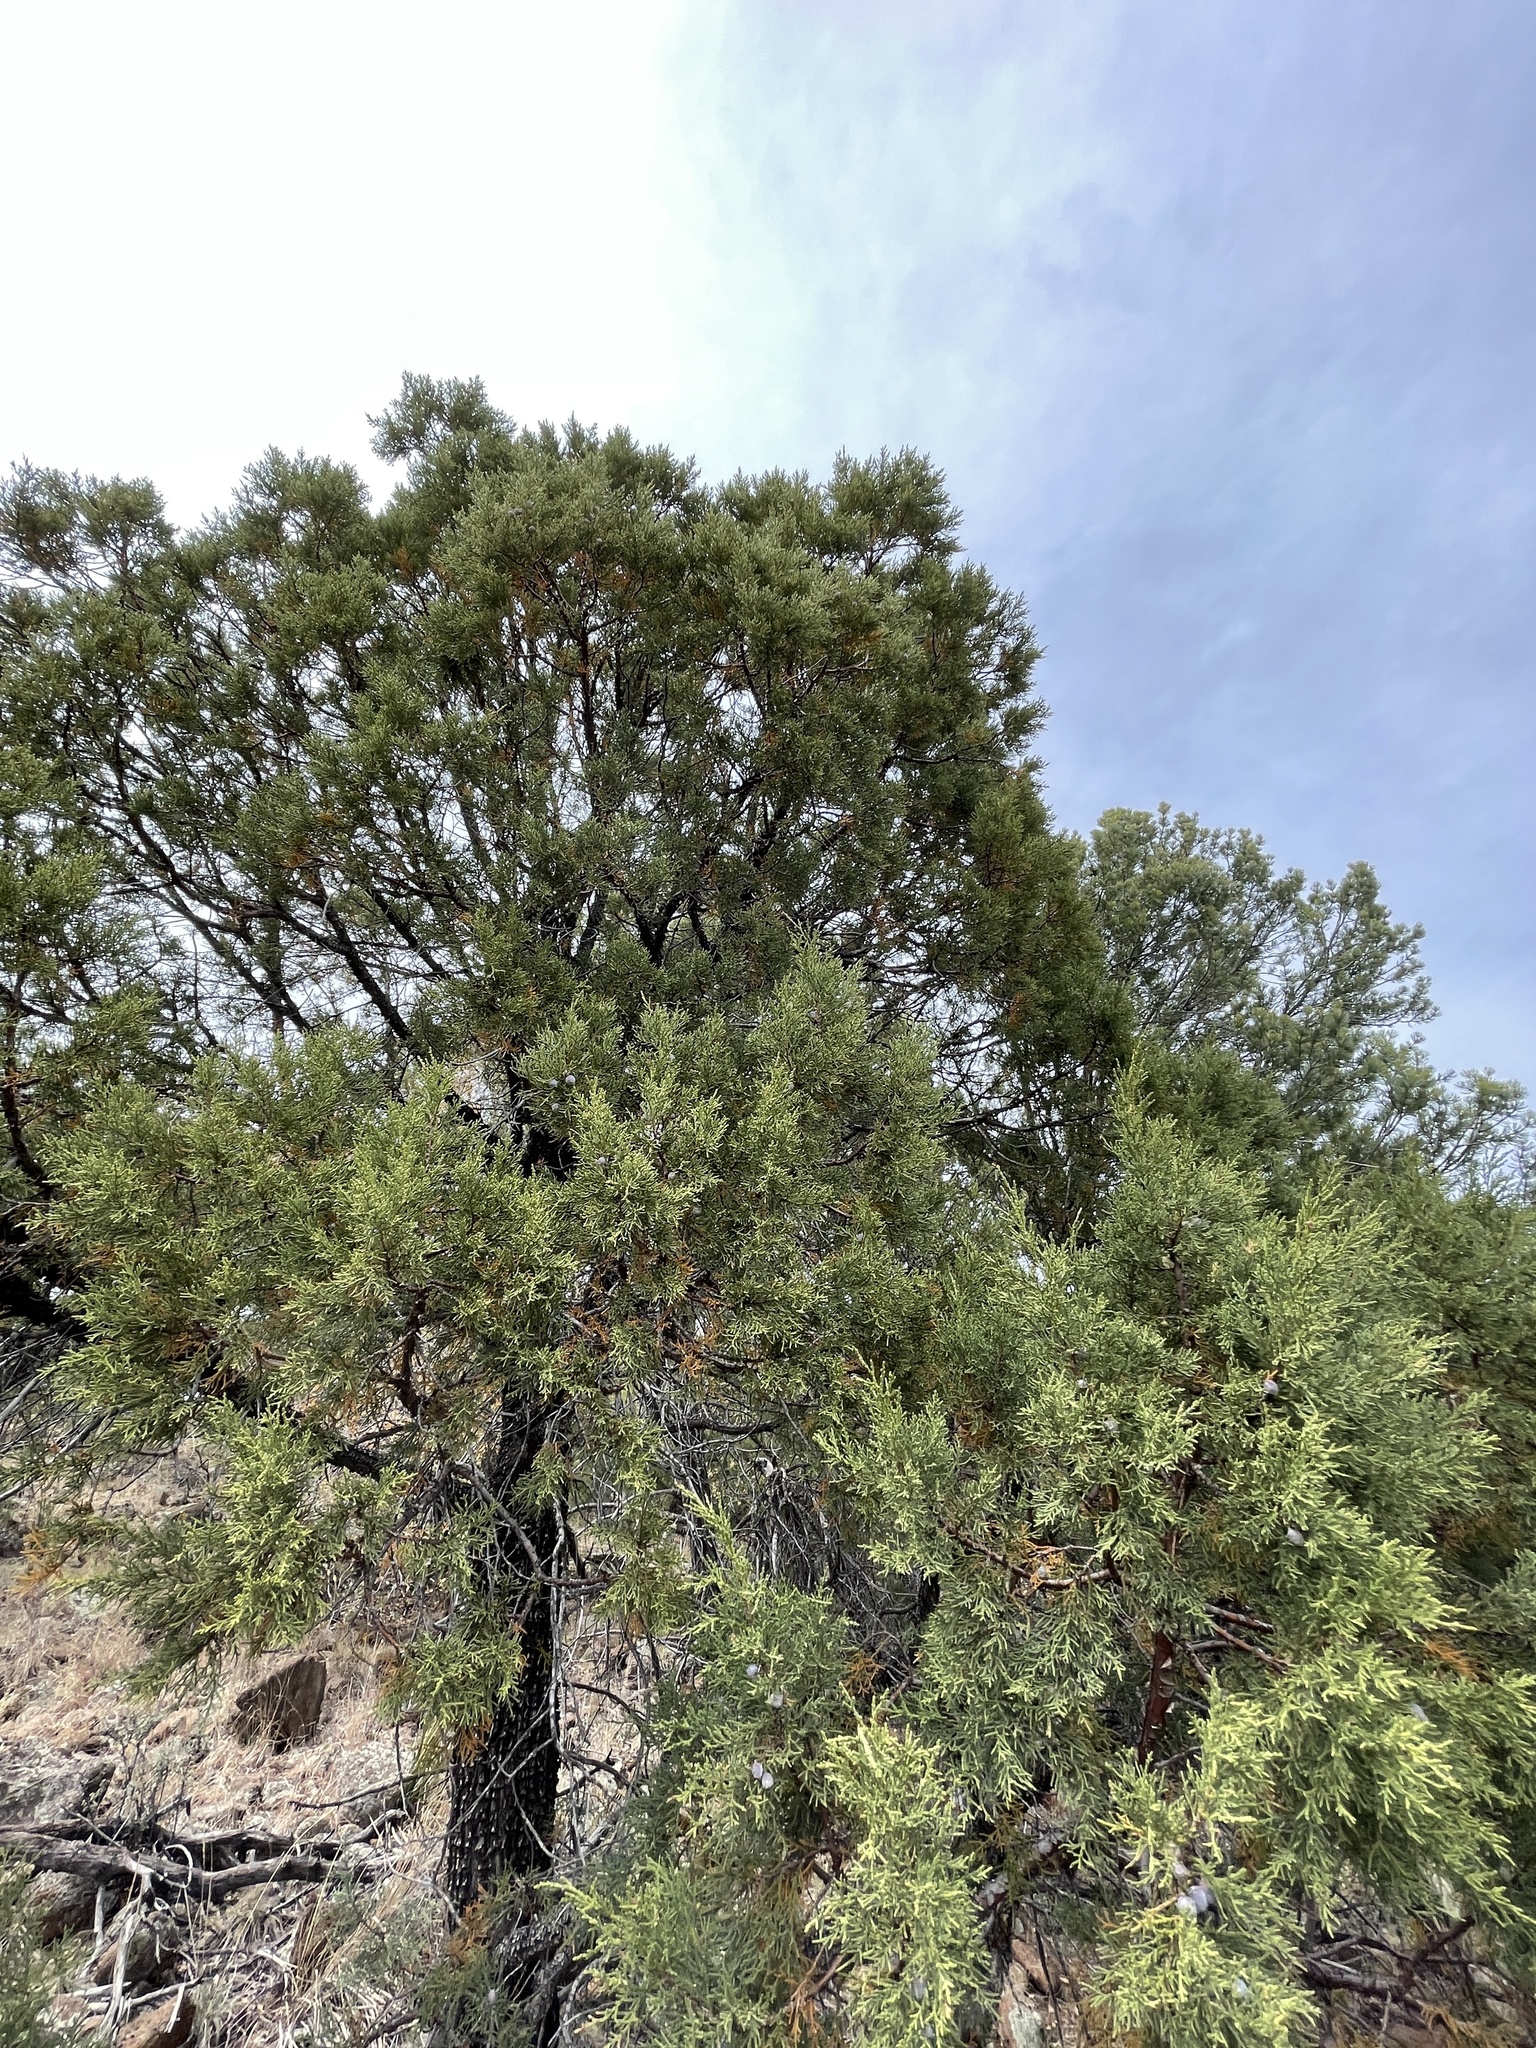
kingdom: Plantae
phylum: Tracheophyta
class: Pinopsida
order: Pinales
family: Cupressaceae
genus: Juniperus
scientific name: Juniperus deppeana
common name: Alligator juniper
